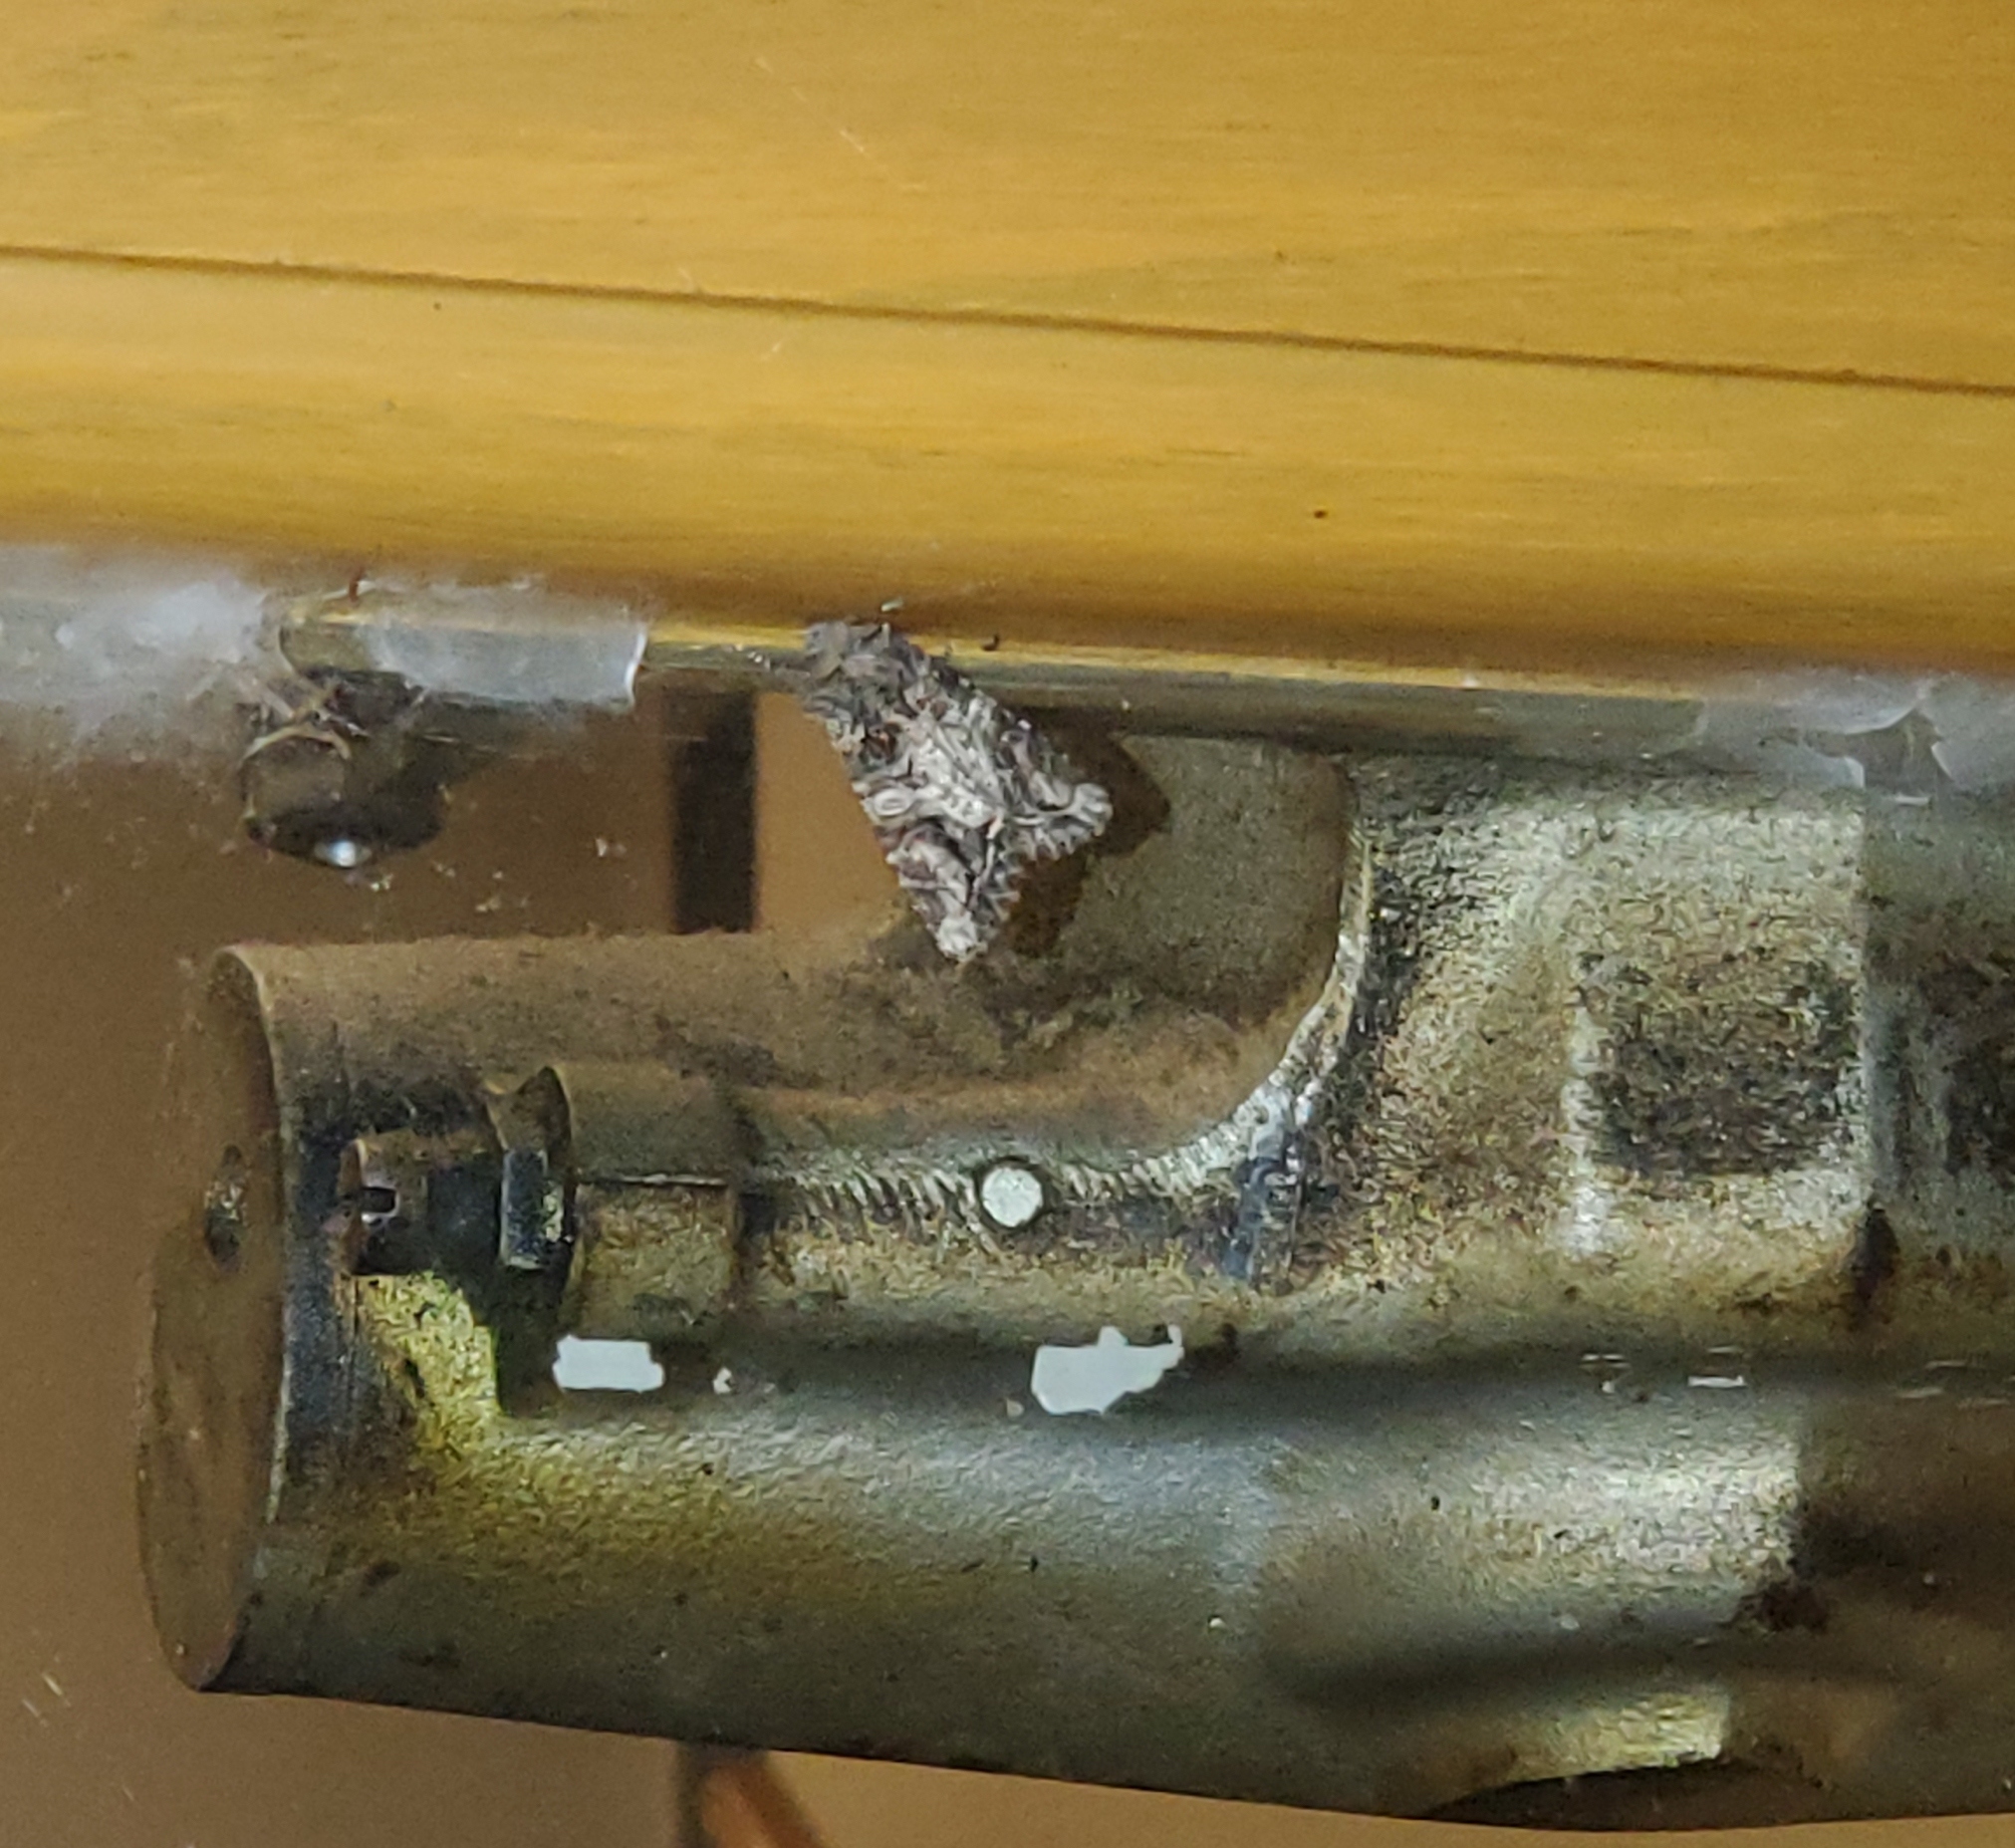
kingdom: Animalia
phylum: Arthropoda
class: Insecta
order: Lepidoptera
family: Noctuidae
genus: Egira
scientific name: Egira perlubens
